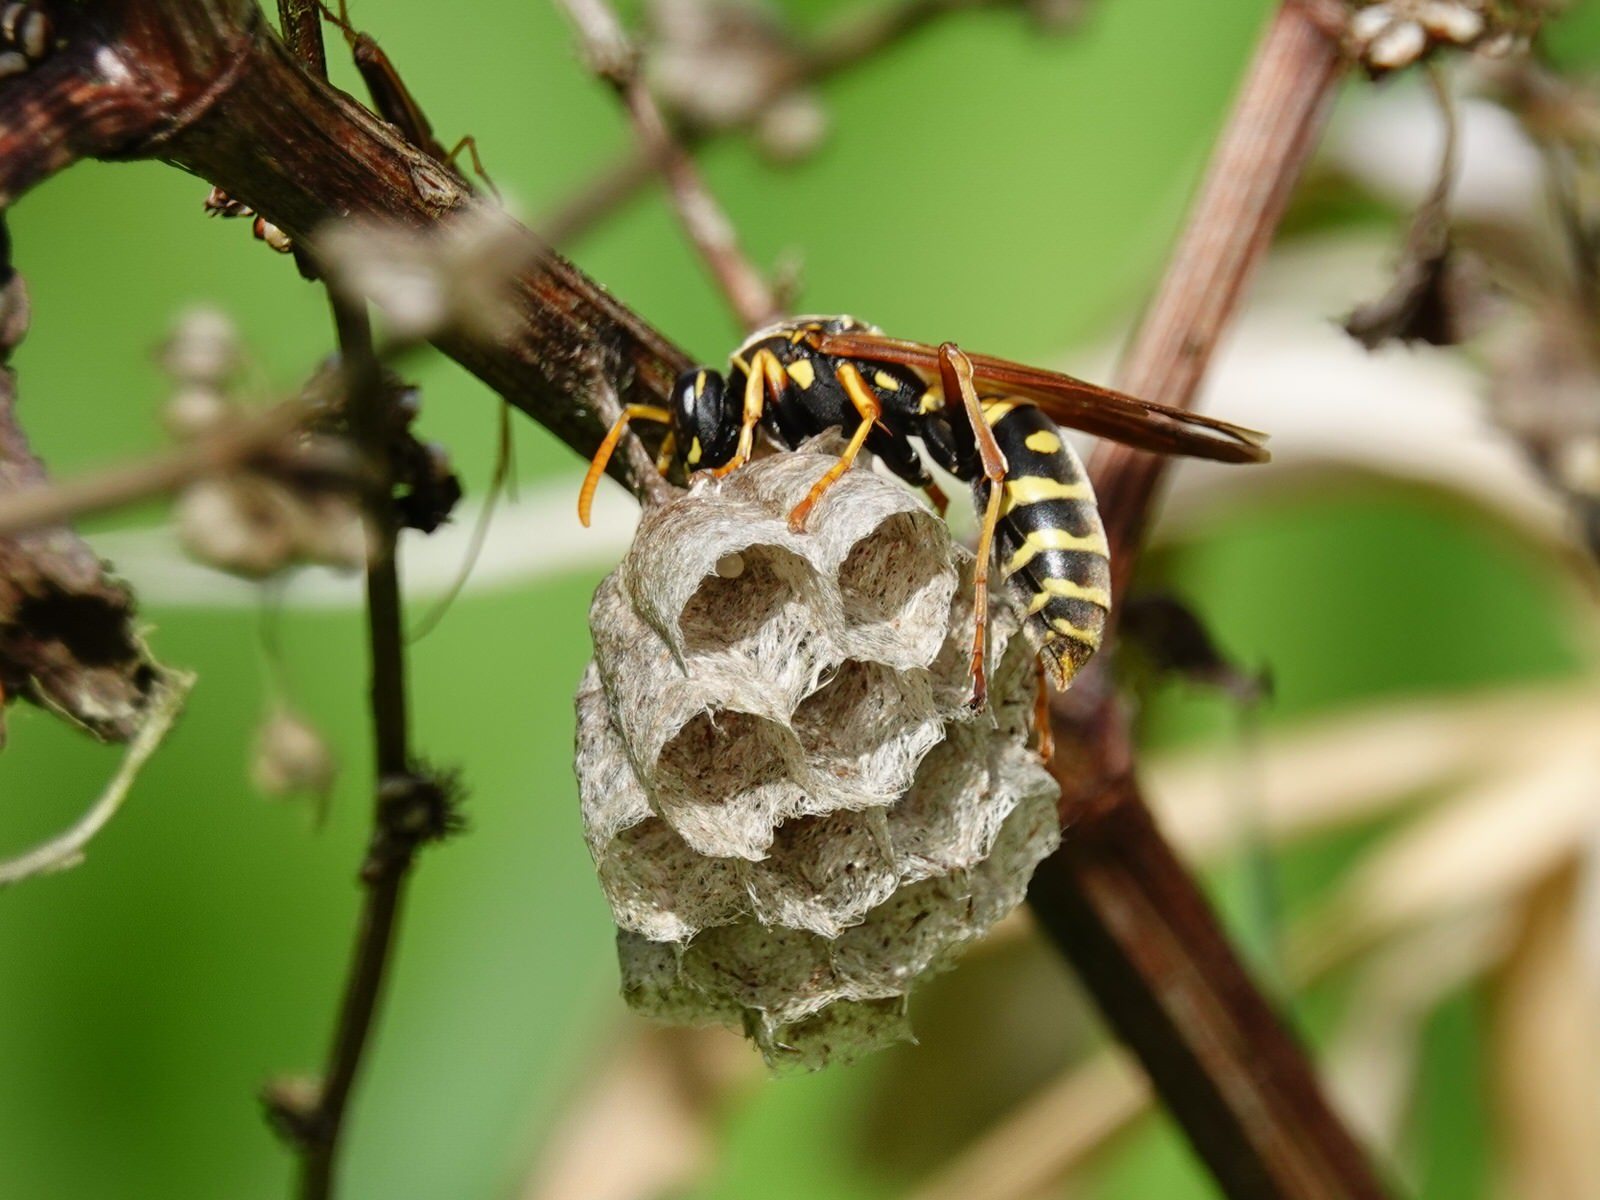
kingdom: Animalia
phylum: Arthropoda
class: Insecta
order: Hymenoptera
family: Eumenidae
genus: Polistes
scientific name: Polistes chinensis
